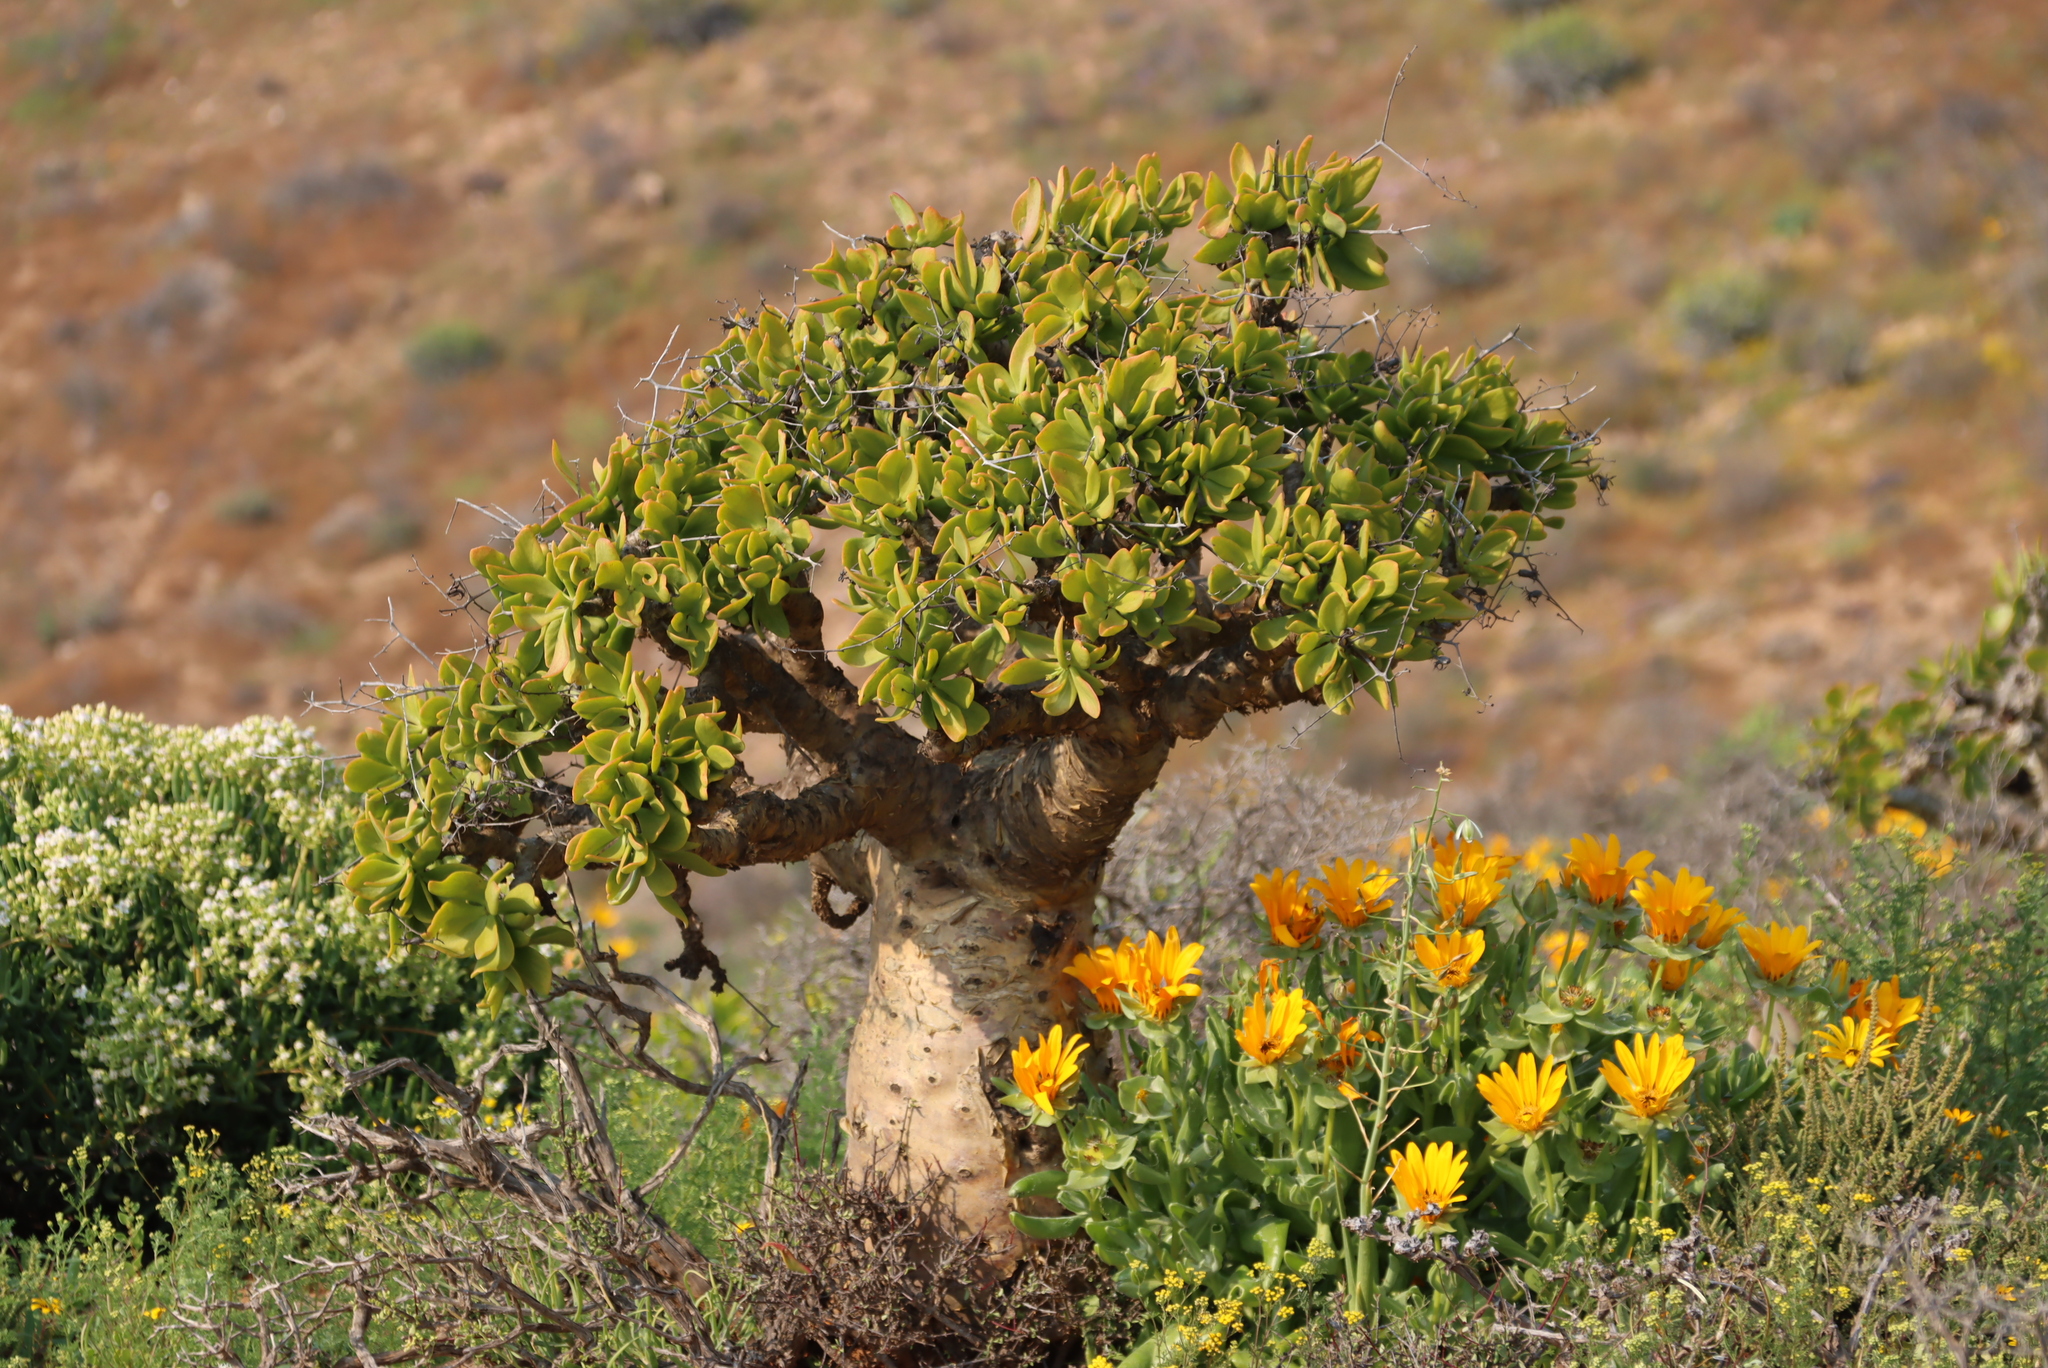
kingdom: Plantae
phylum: Tracheophyta
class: Magnoliopsida
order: Saxifragales
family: Crassulaceae
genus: Tylecodon
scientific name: Tylecodon paniculatus
